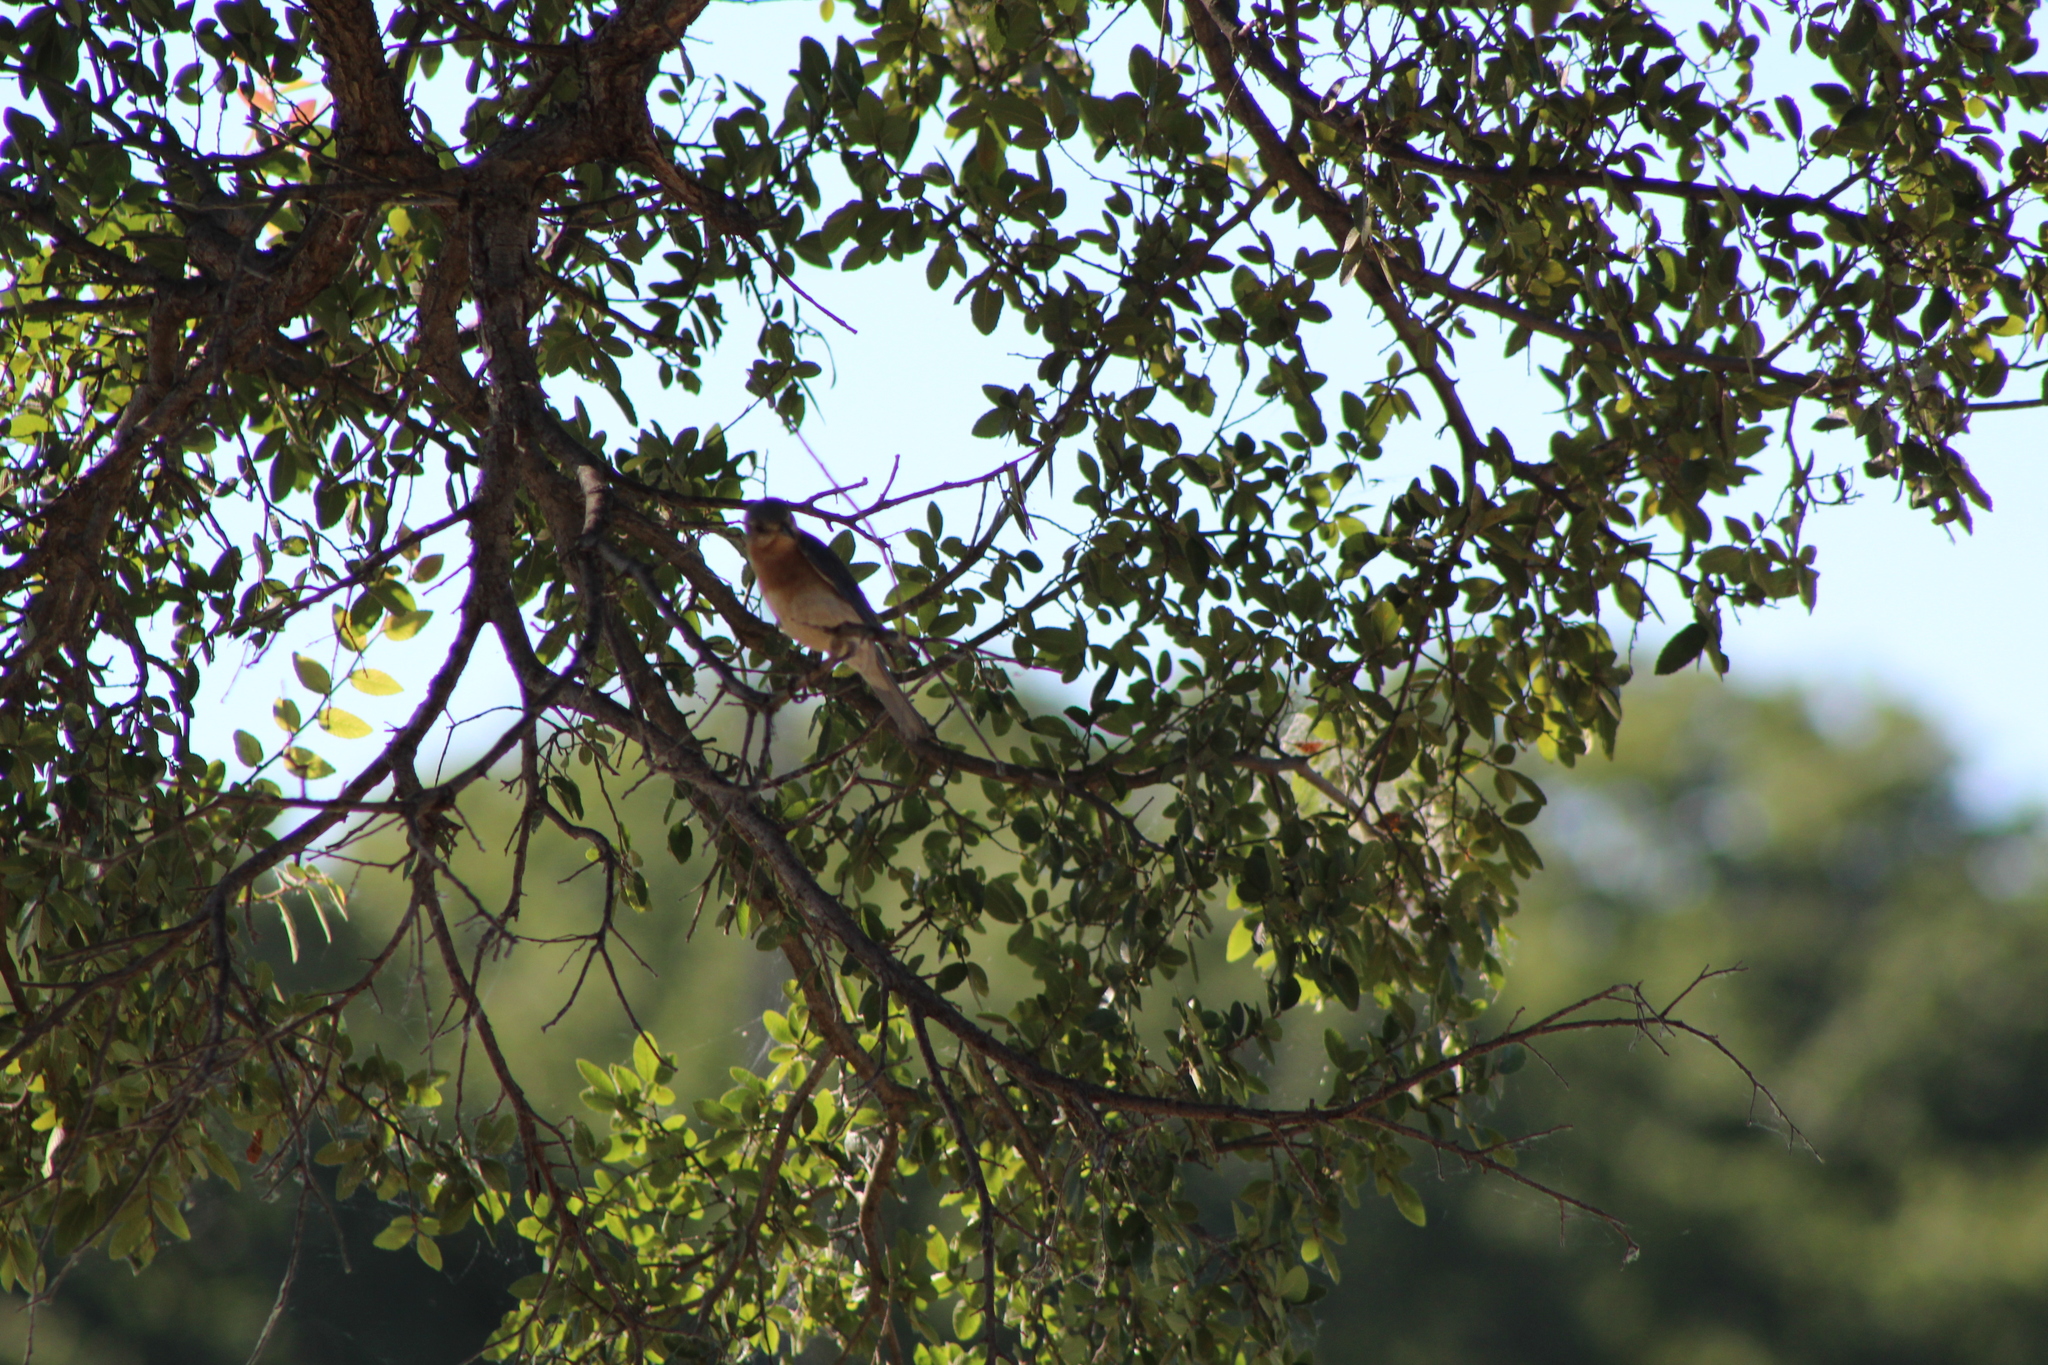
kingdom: Animalia
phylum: Chordata
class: Aves
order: Passeriformes
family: Turdidae
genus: Sialia
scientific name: Sialia sialis
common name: Eastern bluebird
